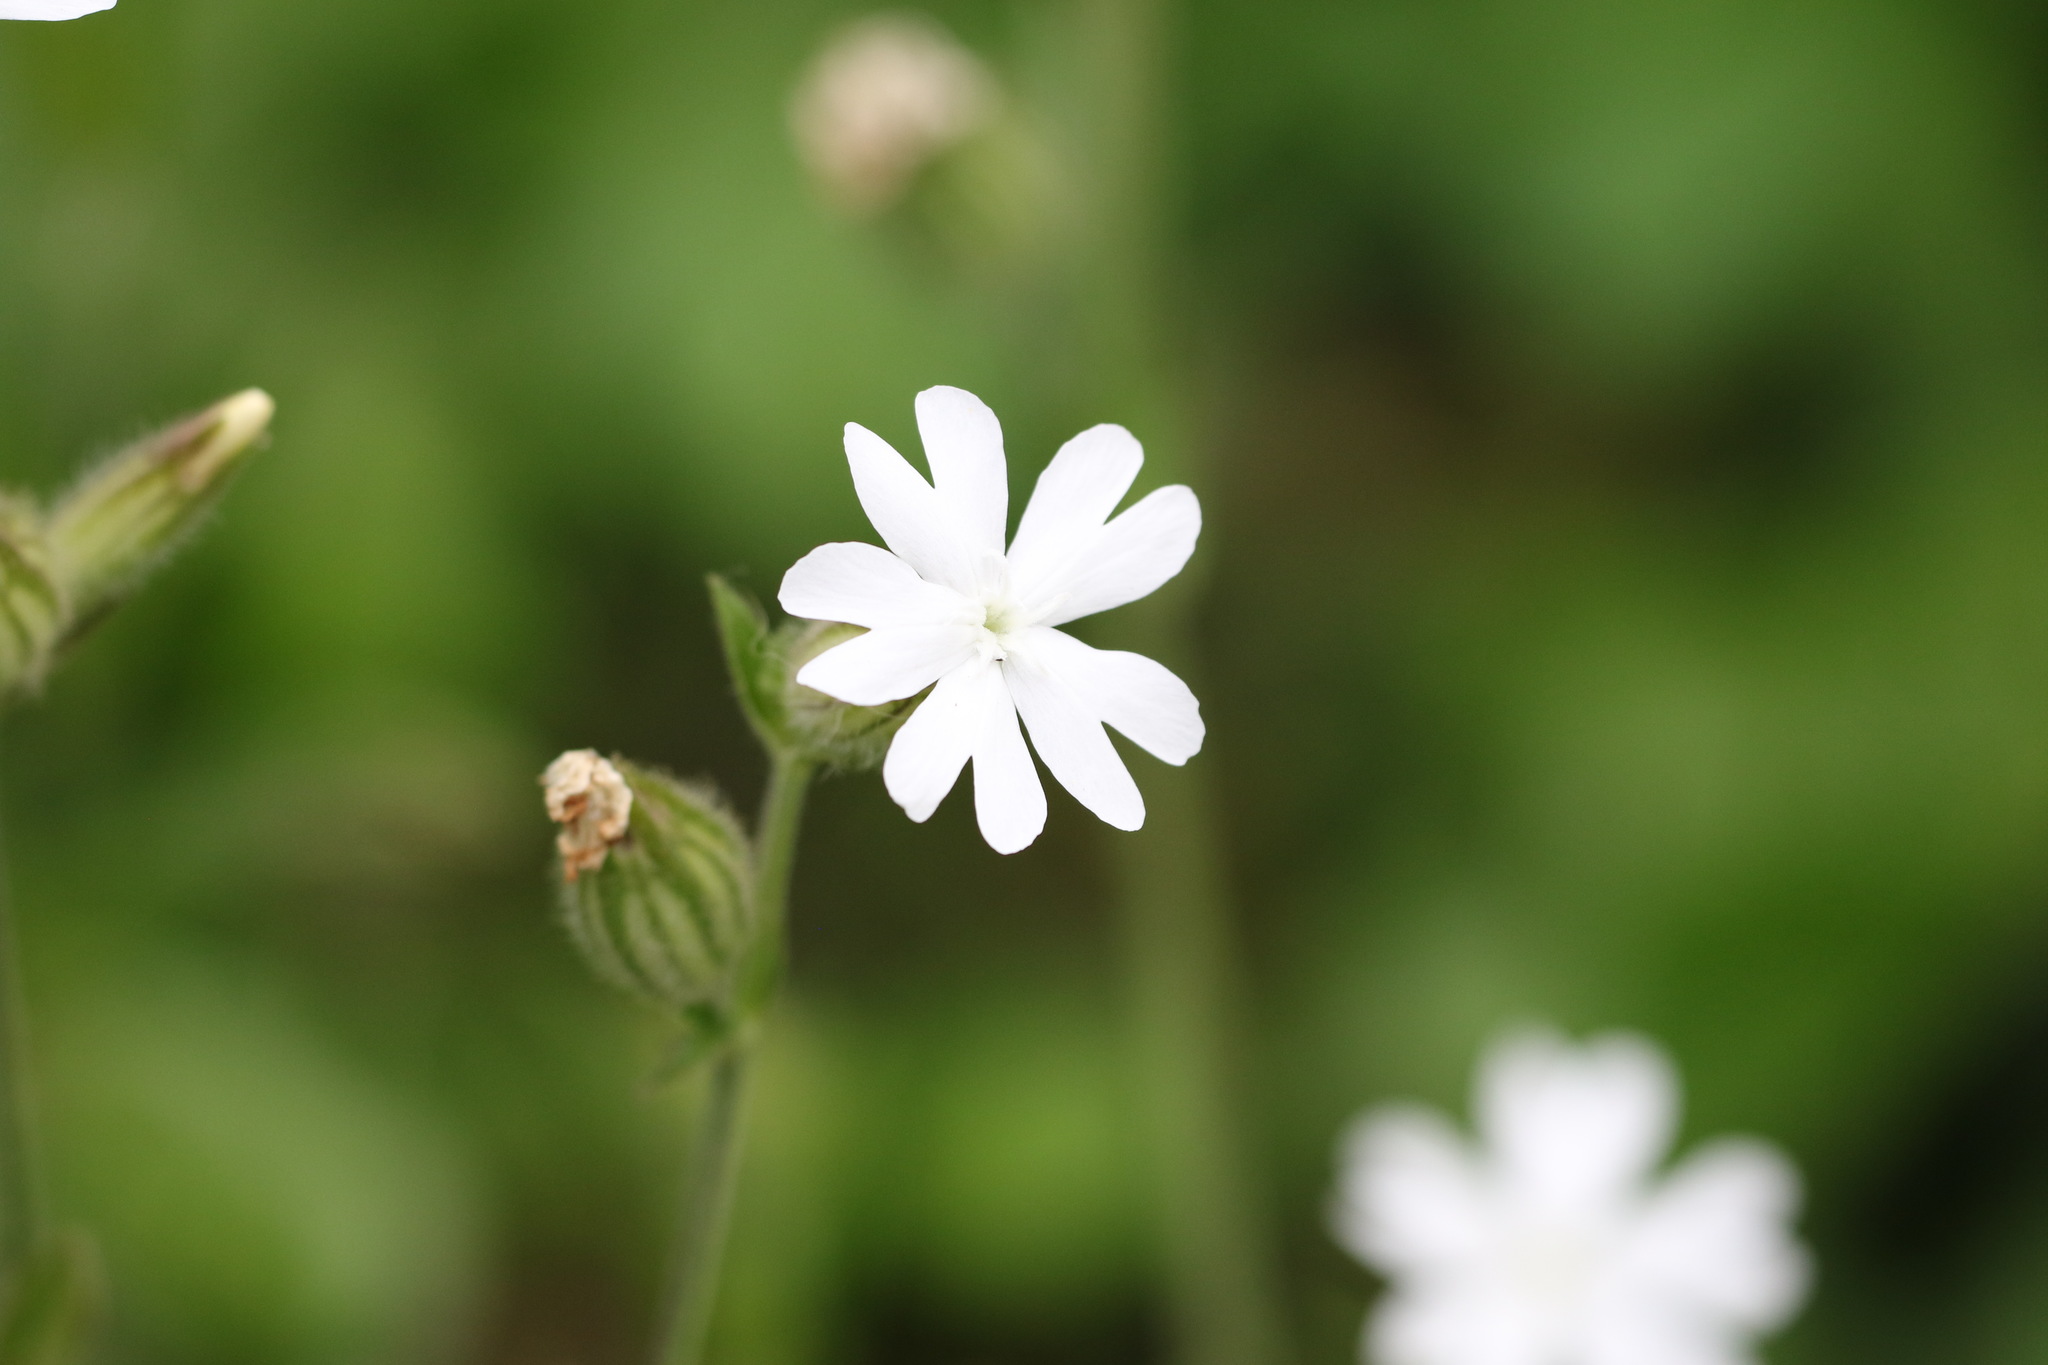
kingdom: Plantae
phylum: Tracheophyta
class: Magnoliopsida
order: Caryophyllales
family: Caryophyllaceae
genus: Silene
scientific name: Silene latifolia
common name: White campion
